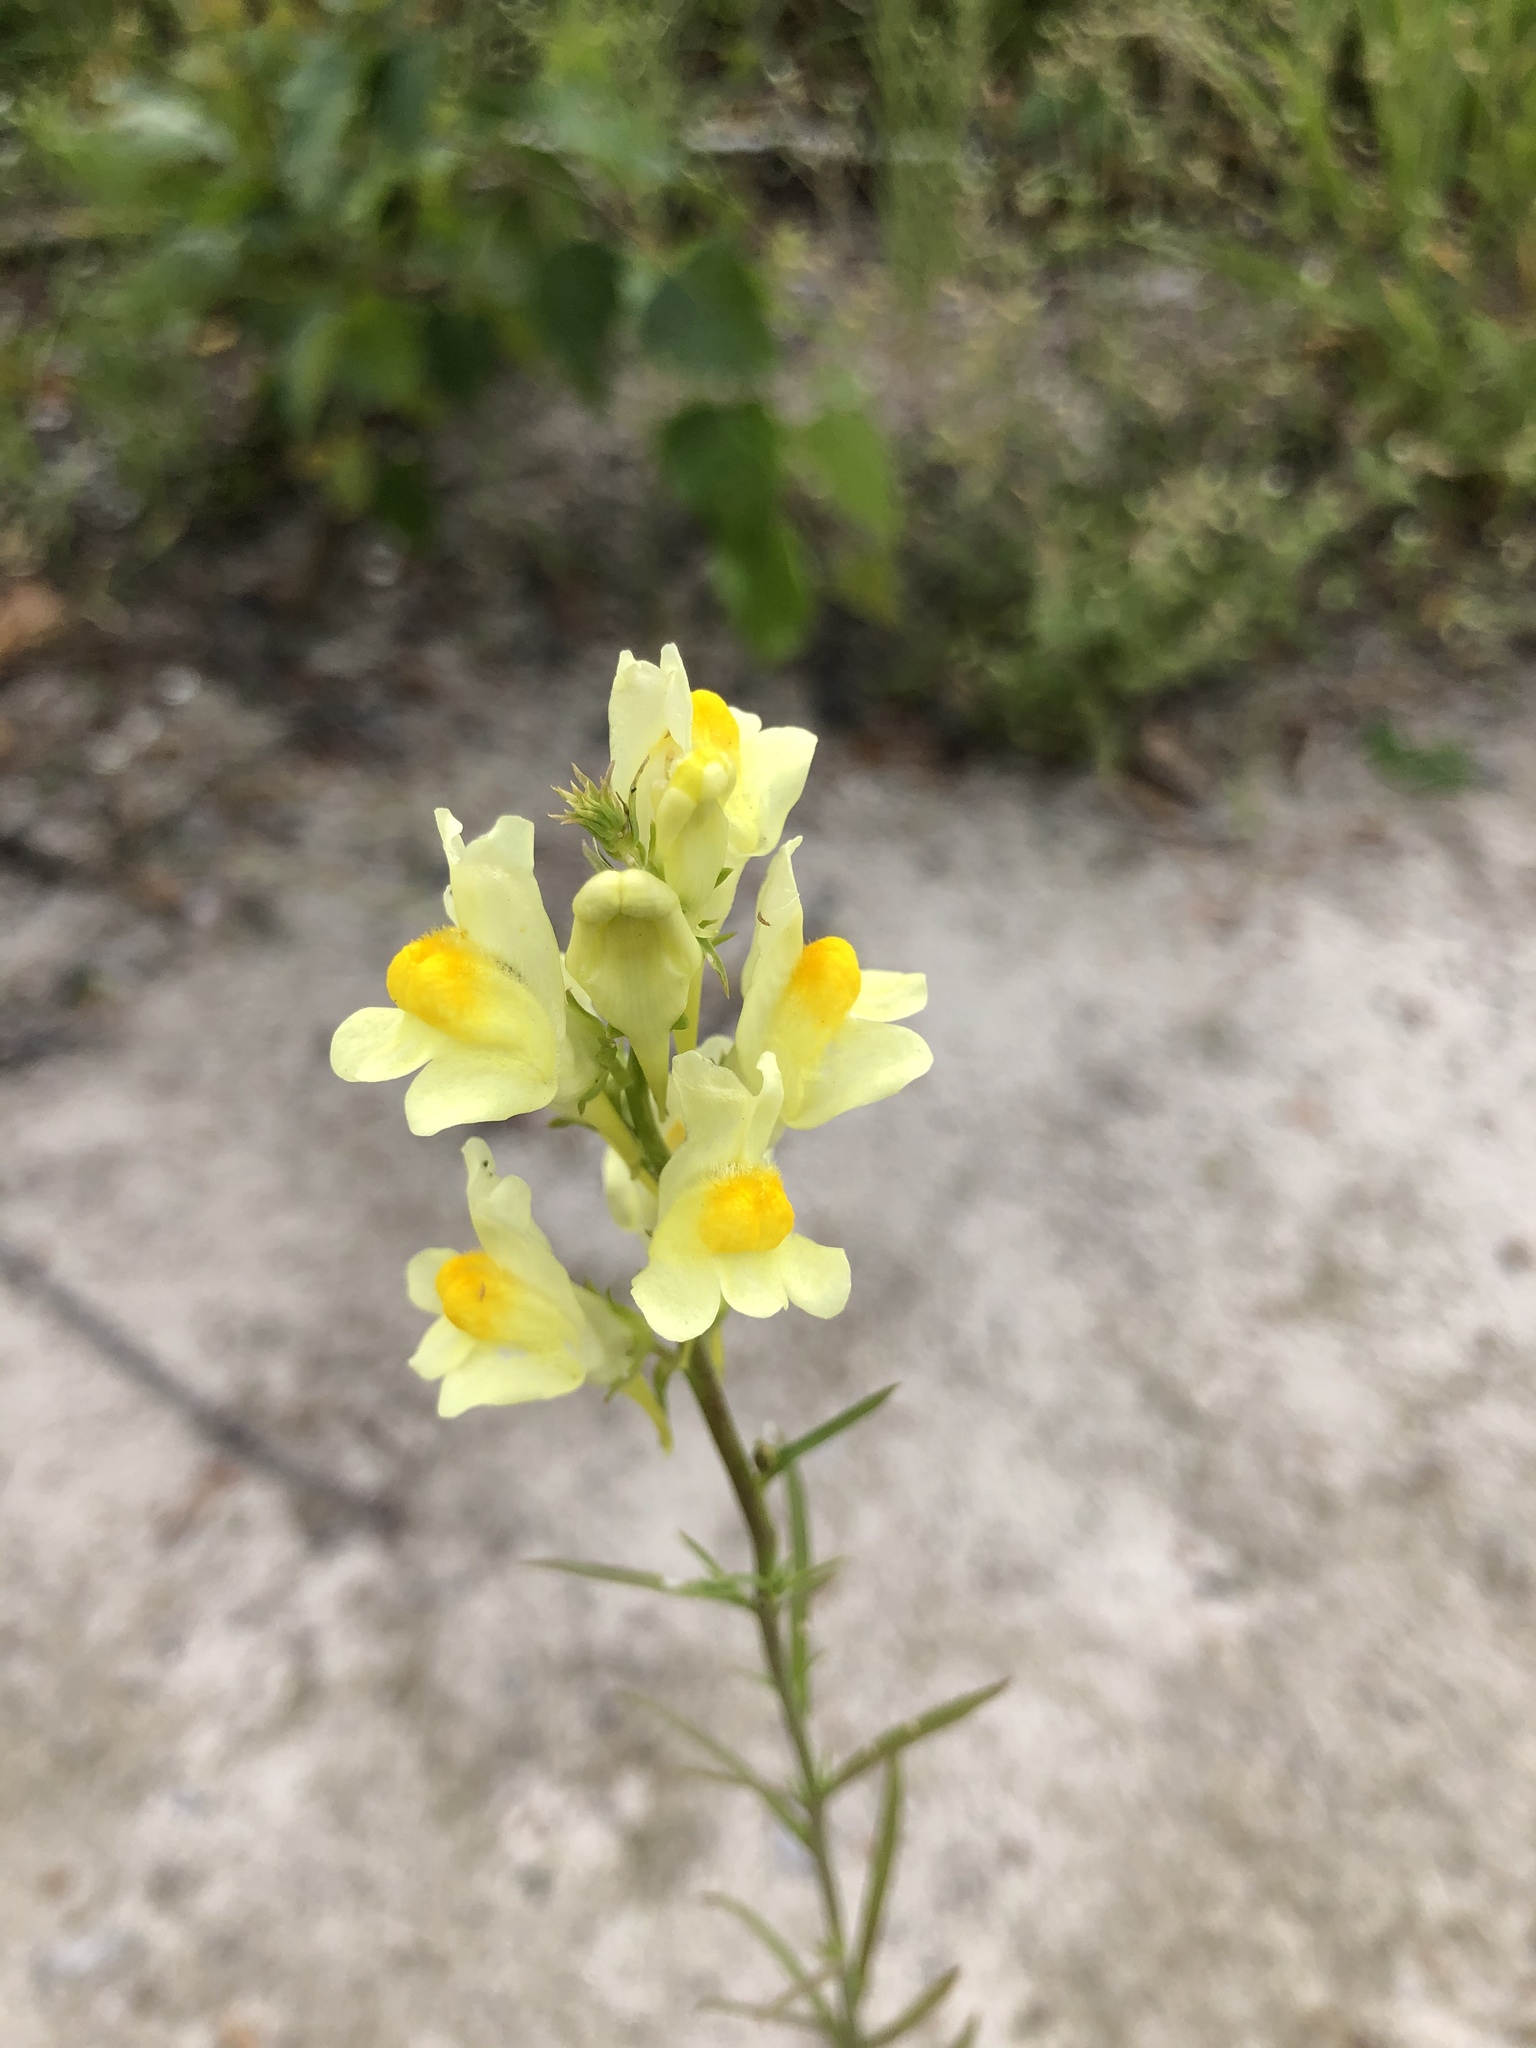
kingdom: Plantae
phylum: Tracheophyta
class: Magnoliopsida
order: Lamiales
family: Plantaginaceae
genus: Linaria
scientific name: Linaria vulgaris
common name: Butter and eggs
